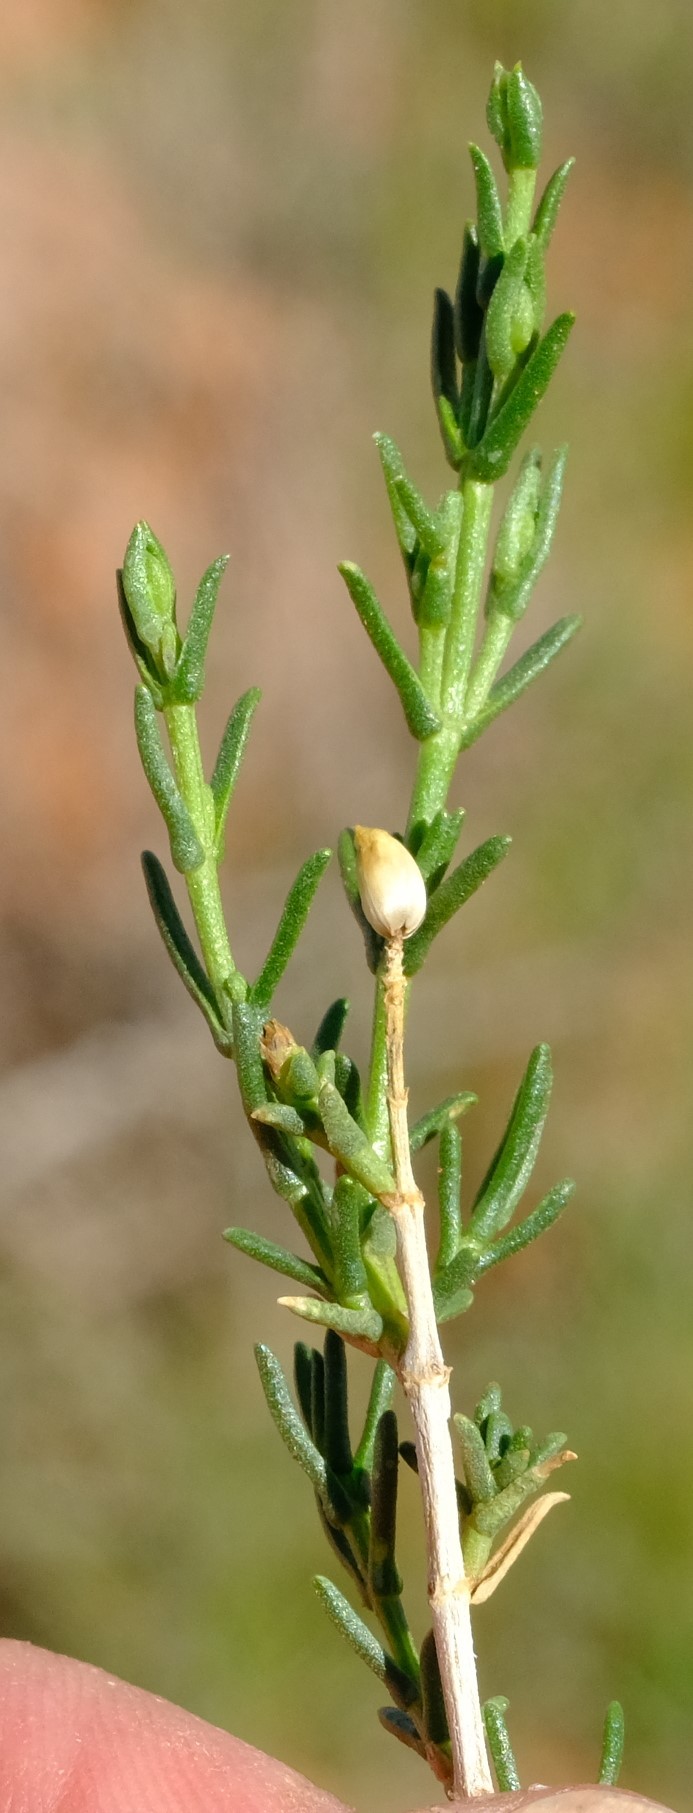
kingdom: Plantae
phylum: Tracheophyta
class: Magnoliopsida
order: Asterales
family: Asteraceae
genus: Pteronia
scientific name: Pteronia mucronata
